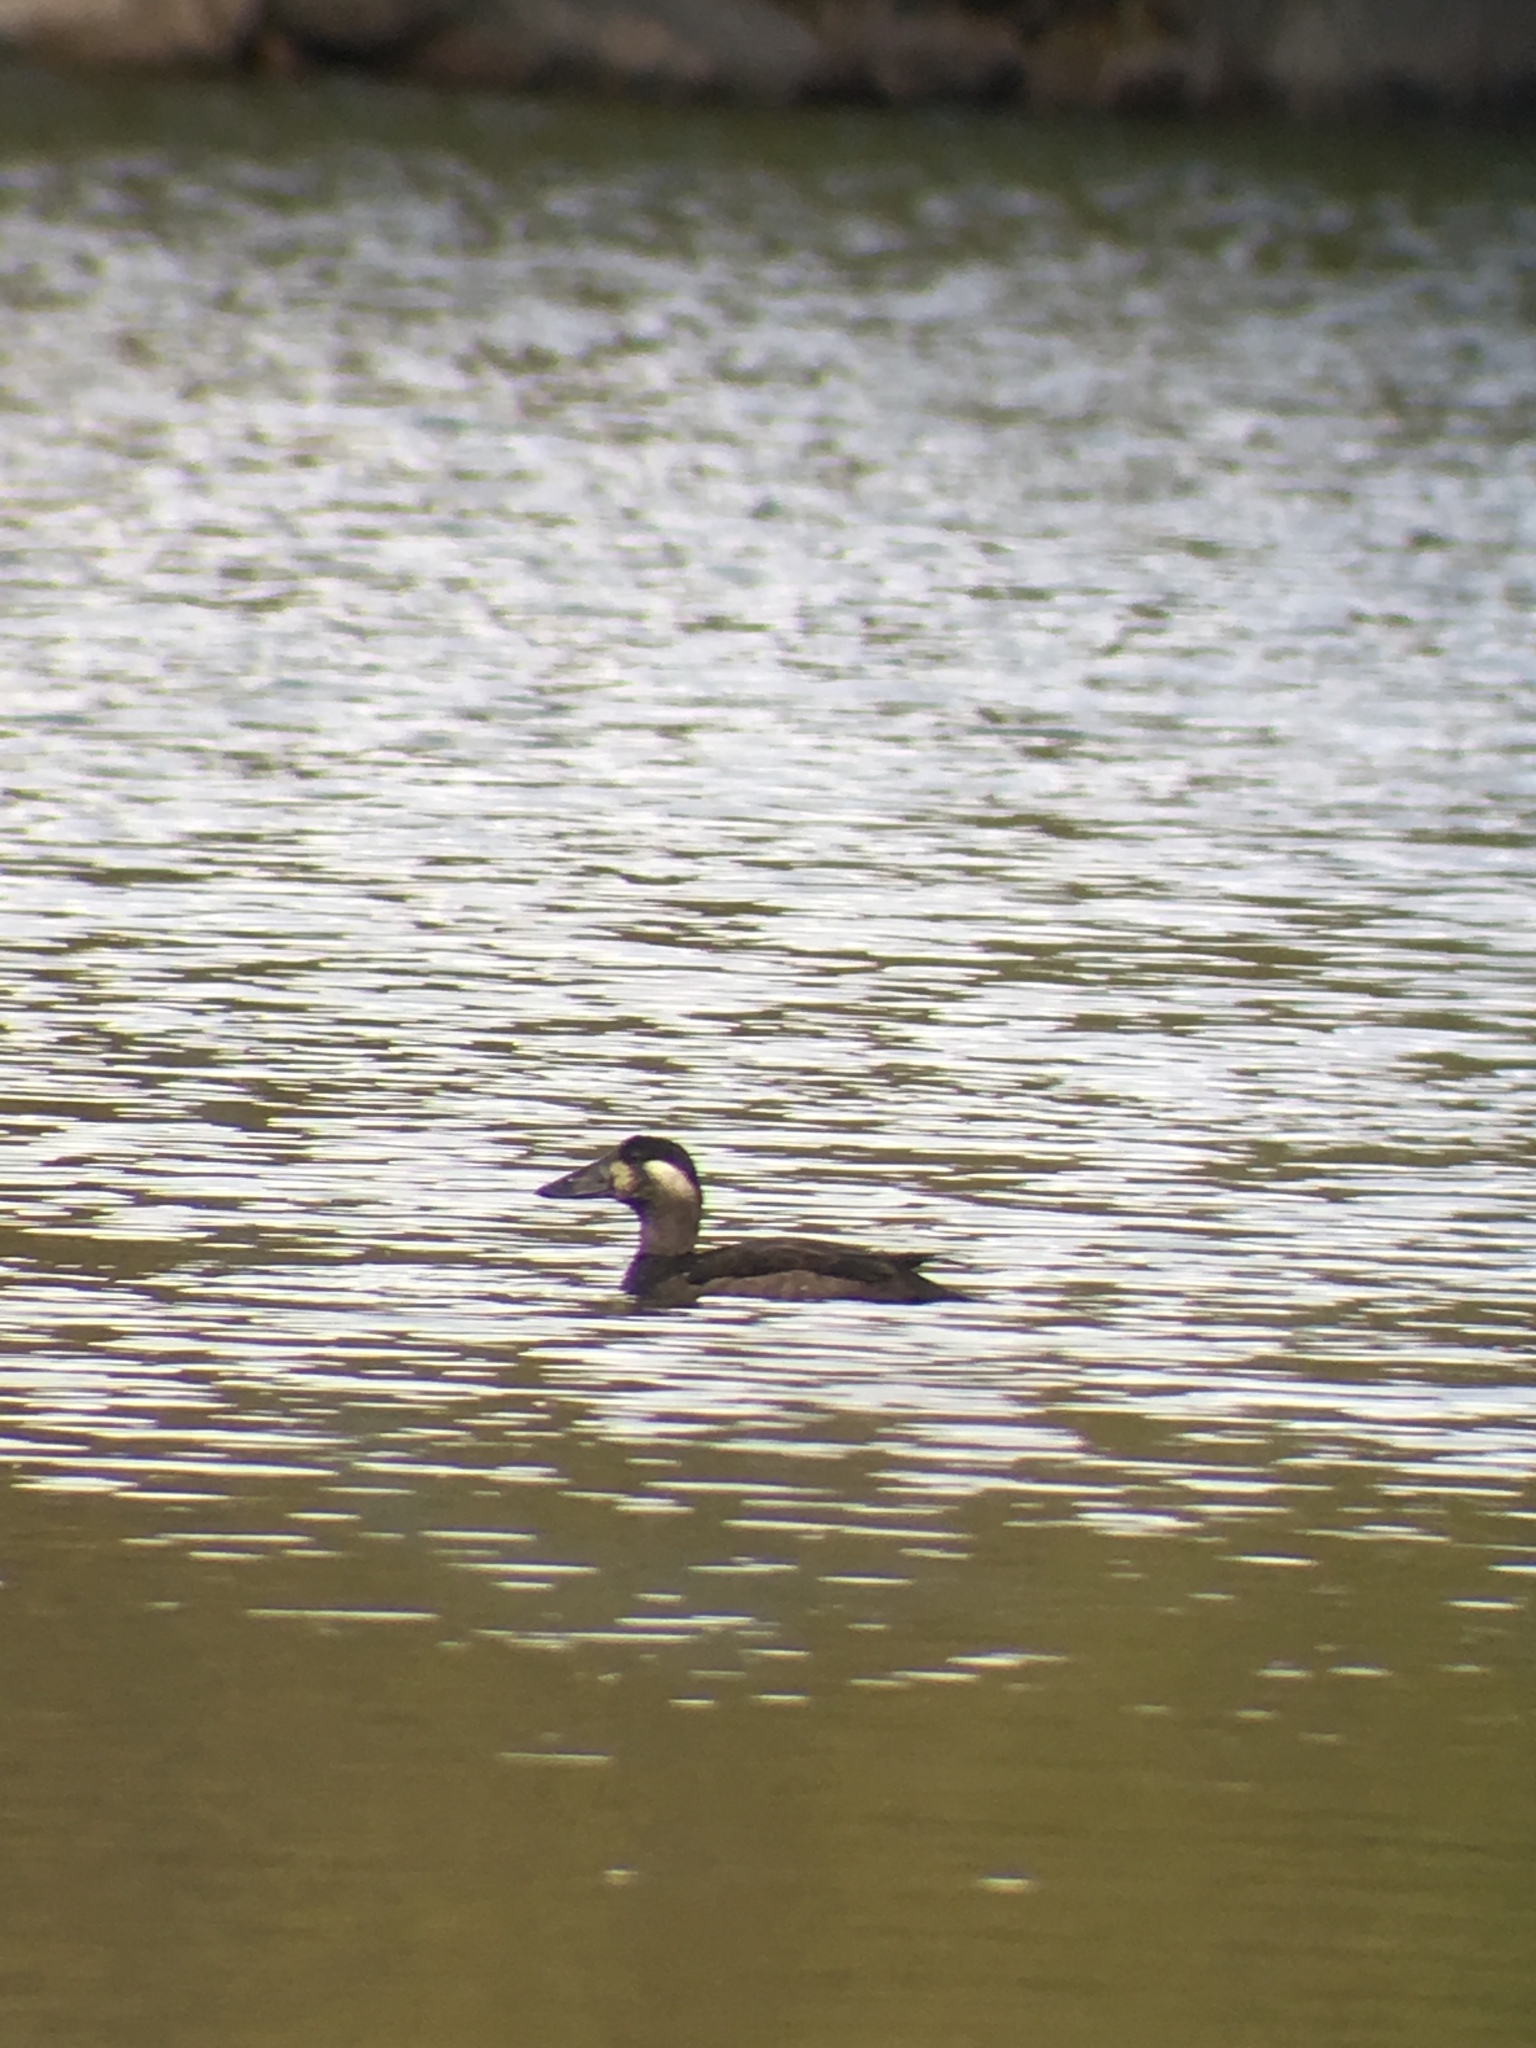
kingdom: Animalia
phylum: Chordata
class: Aves
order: Anseriformes
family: Anatidae
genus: Melanitta
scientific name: Melanitta perspicillata
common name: Surf scoter
